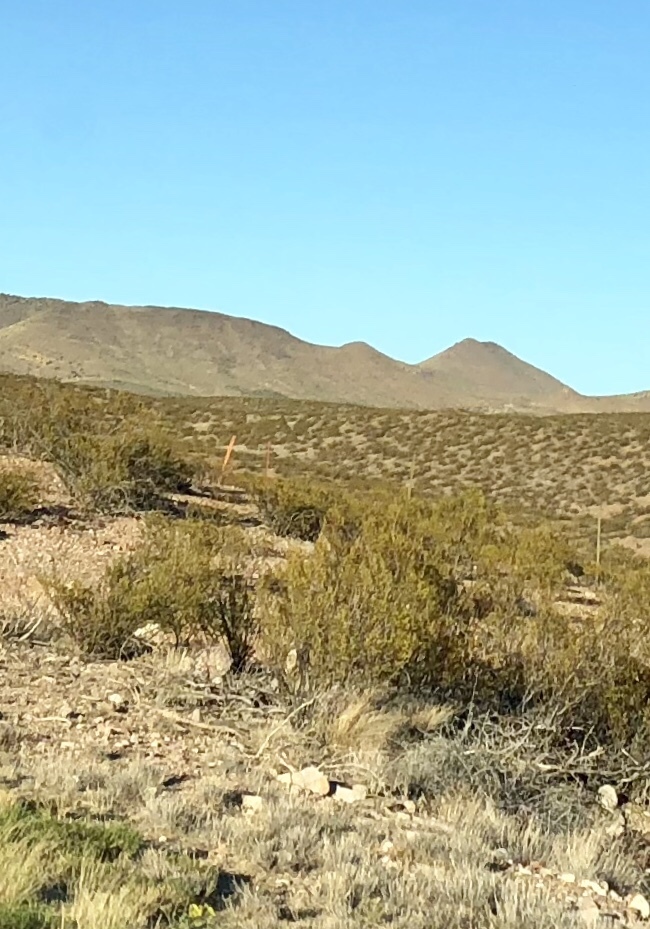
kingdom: Plantae
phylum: Tracheophyta
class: Magnoliopsida
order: Zygophyllales
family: Zygophyllaceae
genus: Larrea
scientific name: Larrea tridentata
